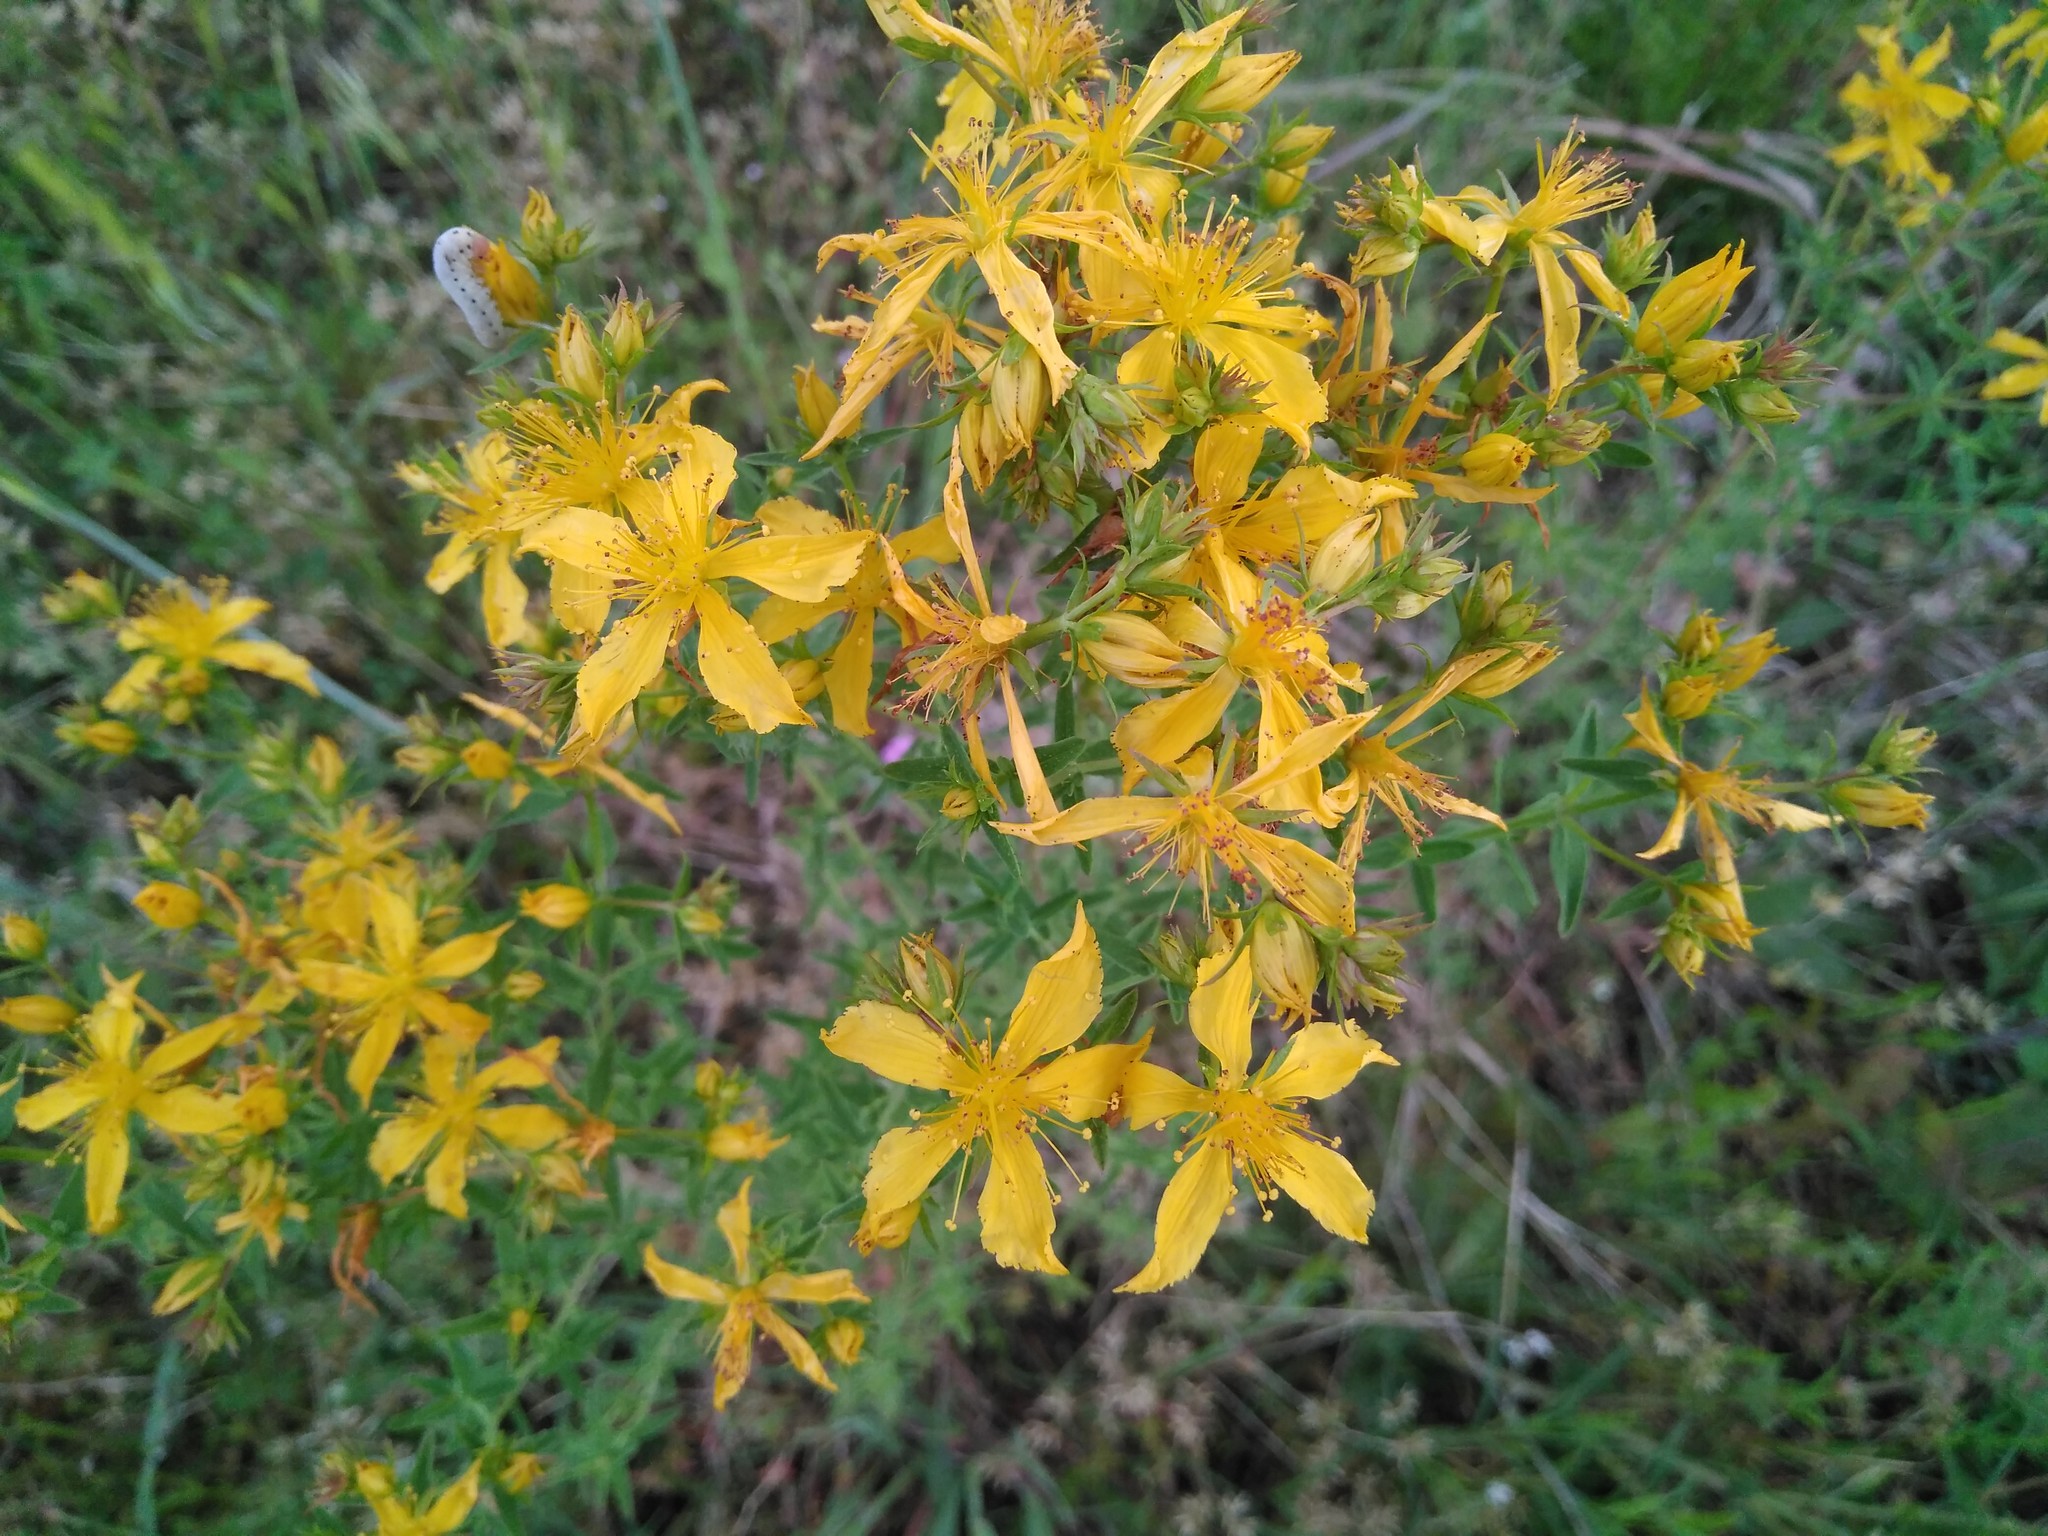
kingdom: Plantae
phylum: Tracheophyta
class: Magnoliopsida
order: Malpighiales
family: Hypericaceae
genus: Hypericum
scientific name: Hypericum perforatum
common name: Common st. johnswort
